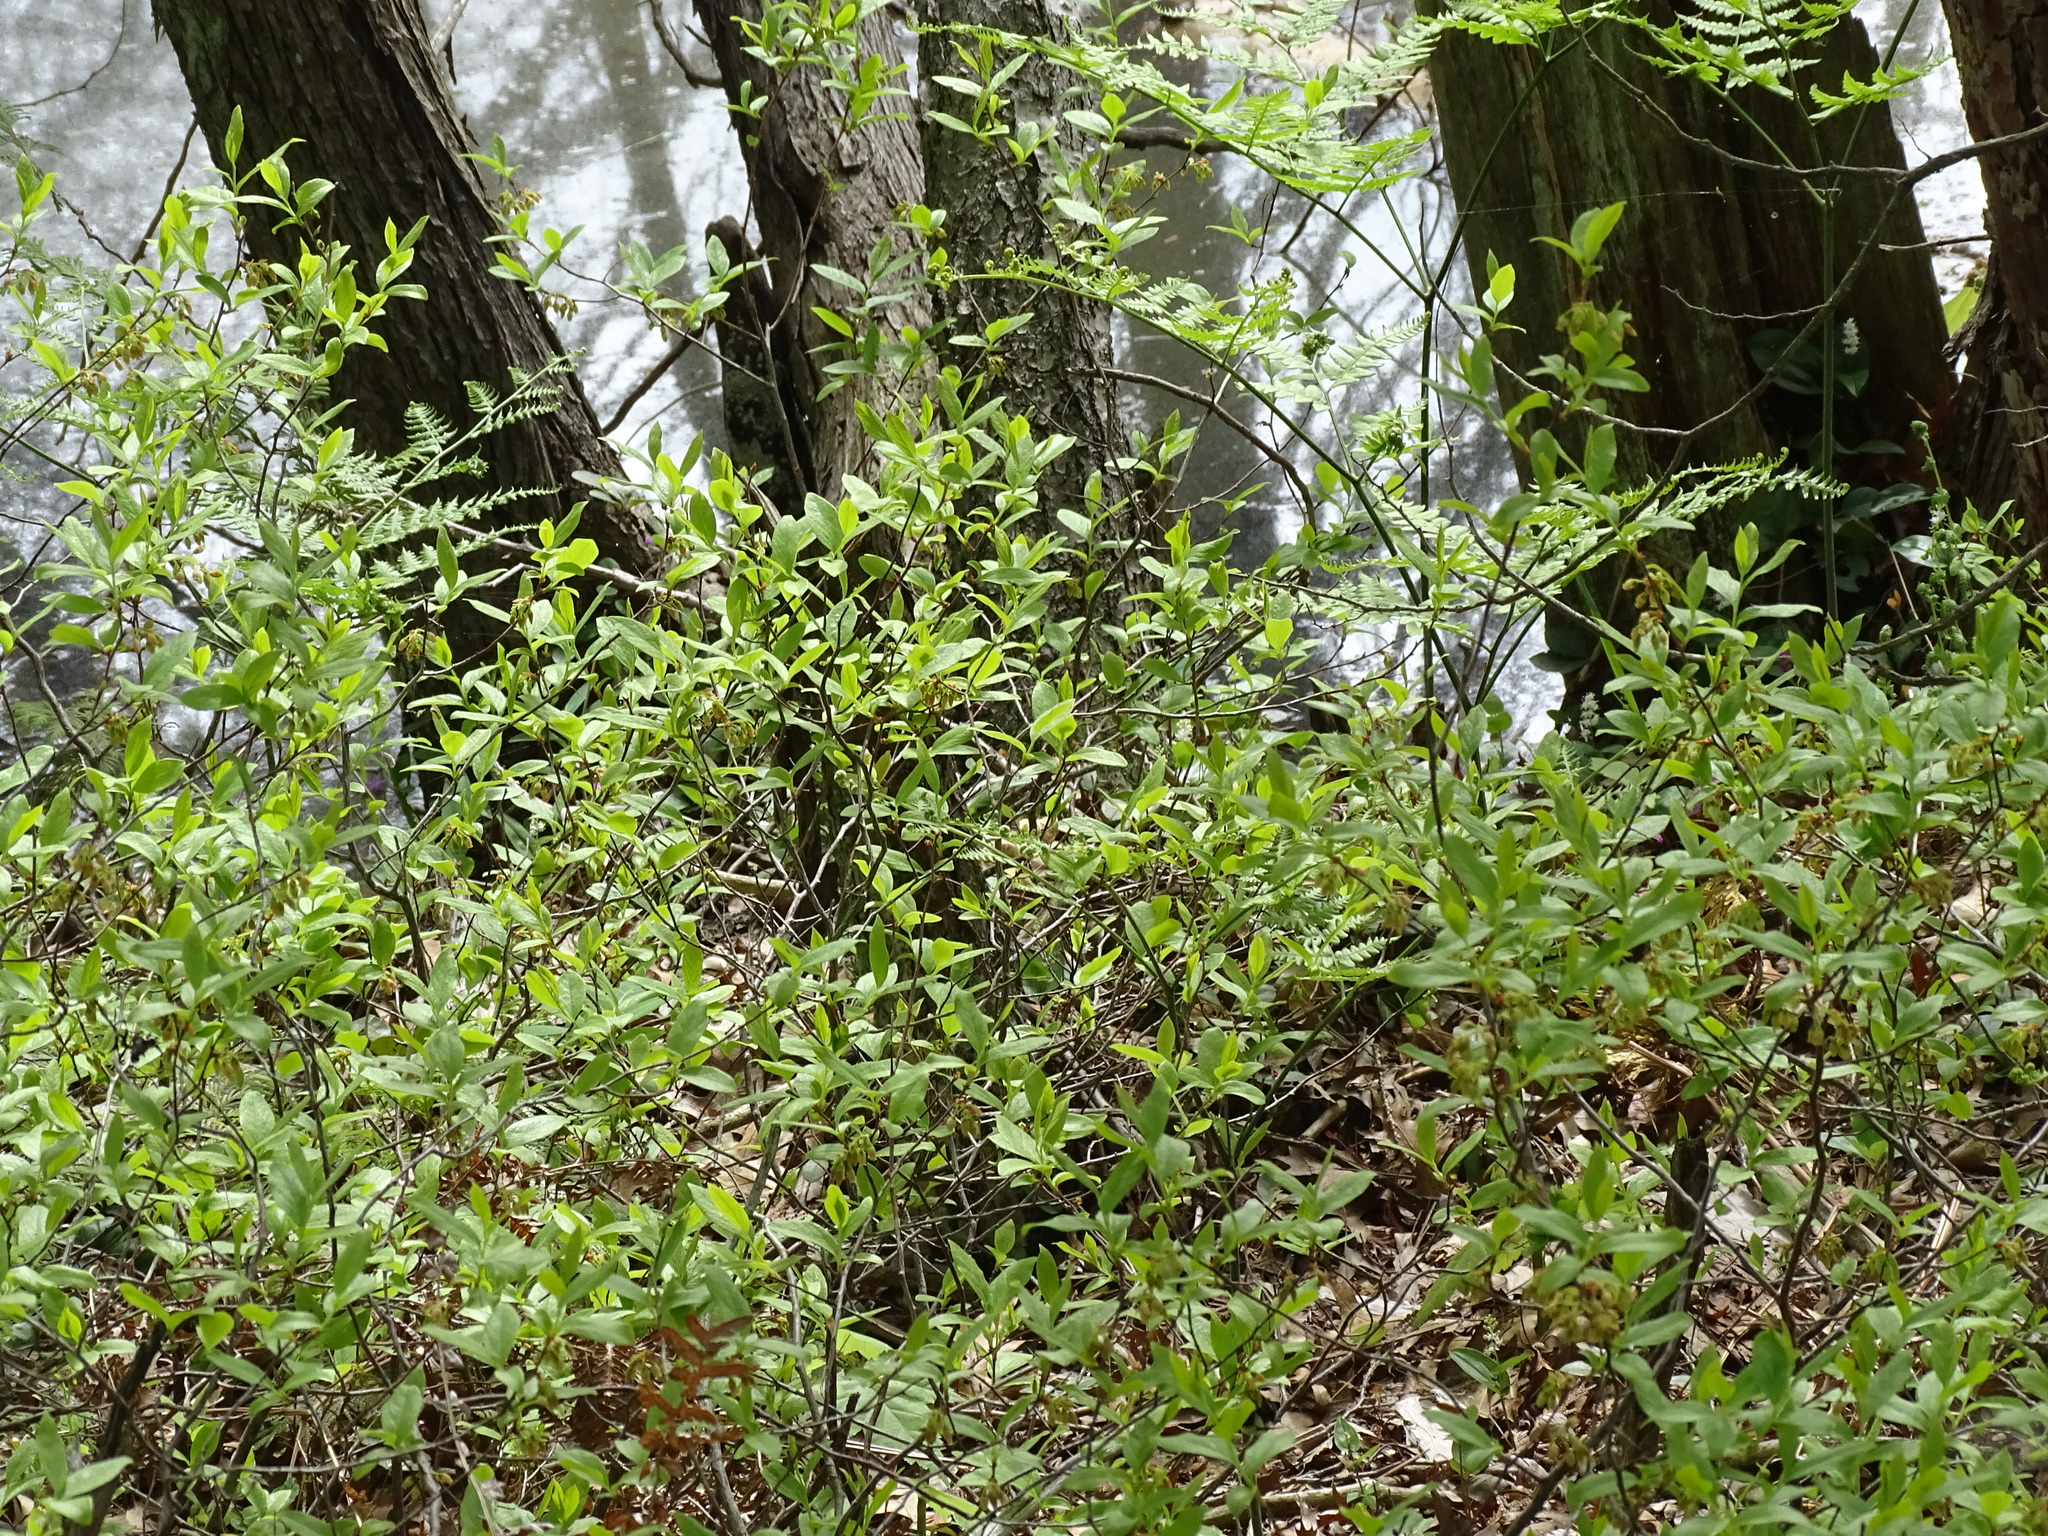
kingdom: Plantae
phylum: Tracheophyta
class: Magnoliopsida
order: Ericales
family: Ericaceae
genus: Gaylussacia
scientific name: Gaylussacia baccata
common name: Black huckleberry
